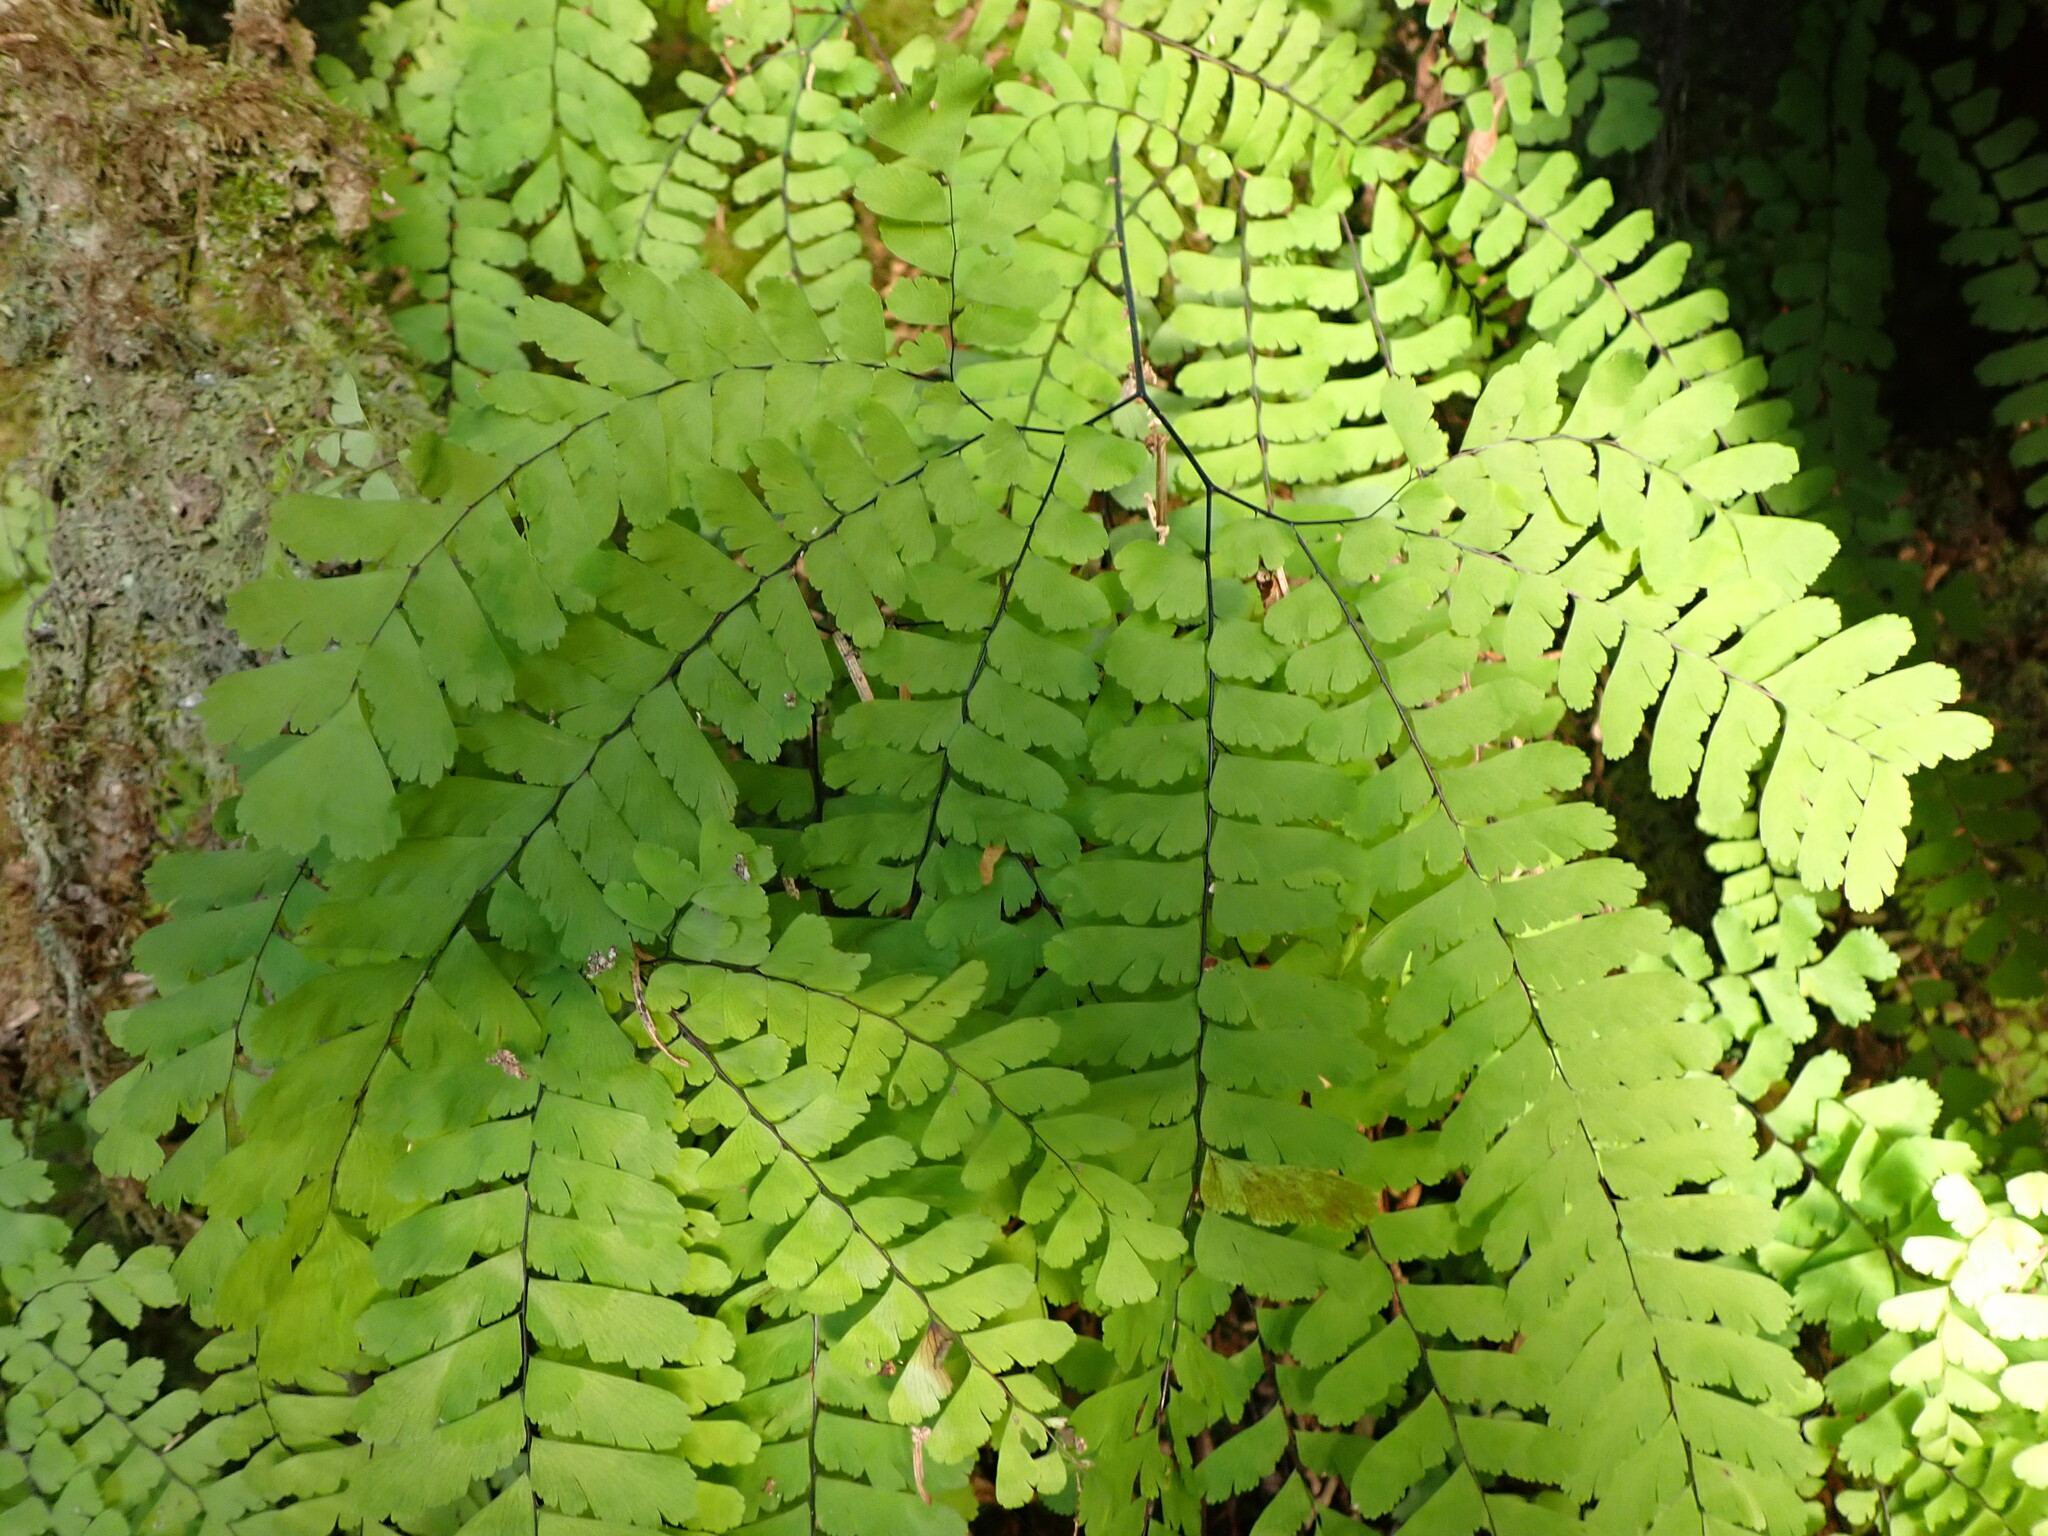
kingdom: Plantae
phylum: Tracheophyta
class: Polypodiopsida
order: Polypodiales
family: Pteridaceae
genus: Adiantum
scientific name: Adiantum aleuticum
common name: Aleutian maidenhair fern
